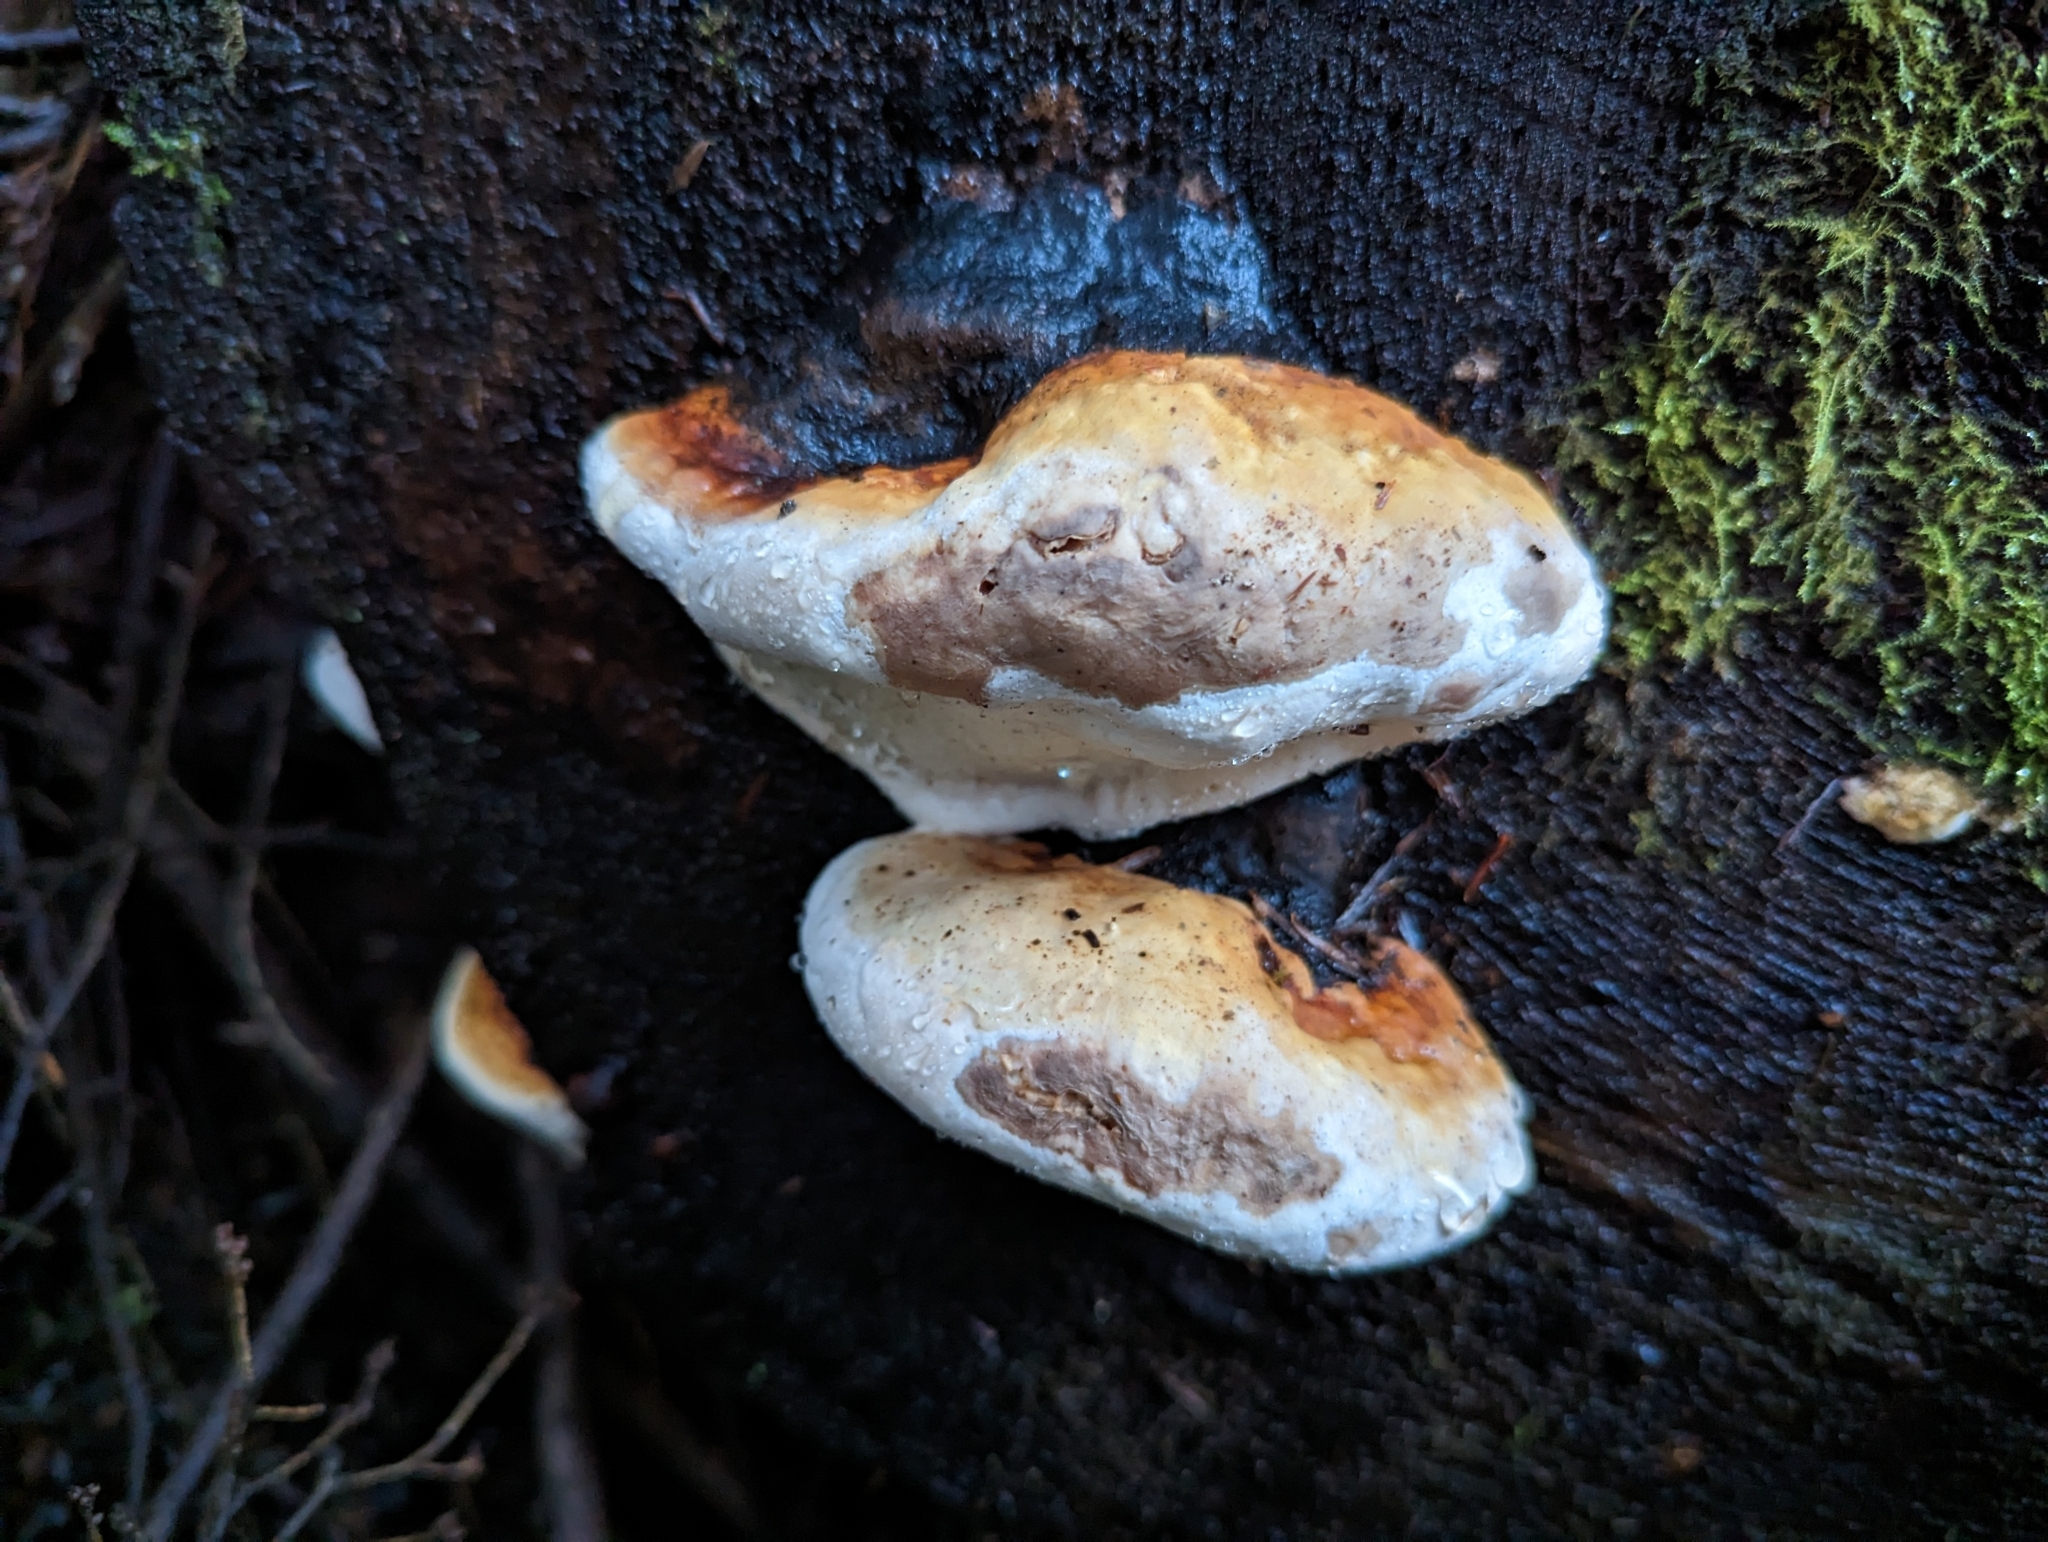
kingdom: Fungi
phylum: Basidiomycota
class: Agaricomycetes
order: Polyporales
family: Fomitopsidaceae
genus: Fomitopsis
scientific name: Fomitopsis mounceae
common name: Northern red belt
